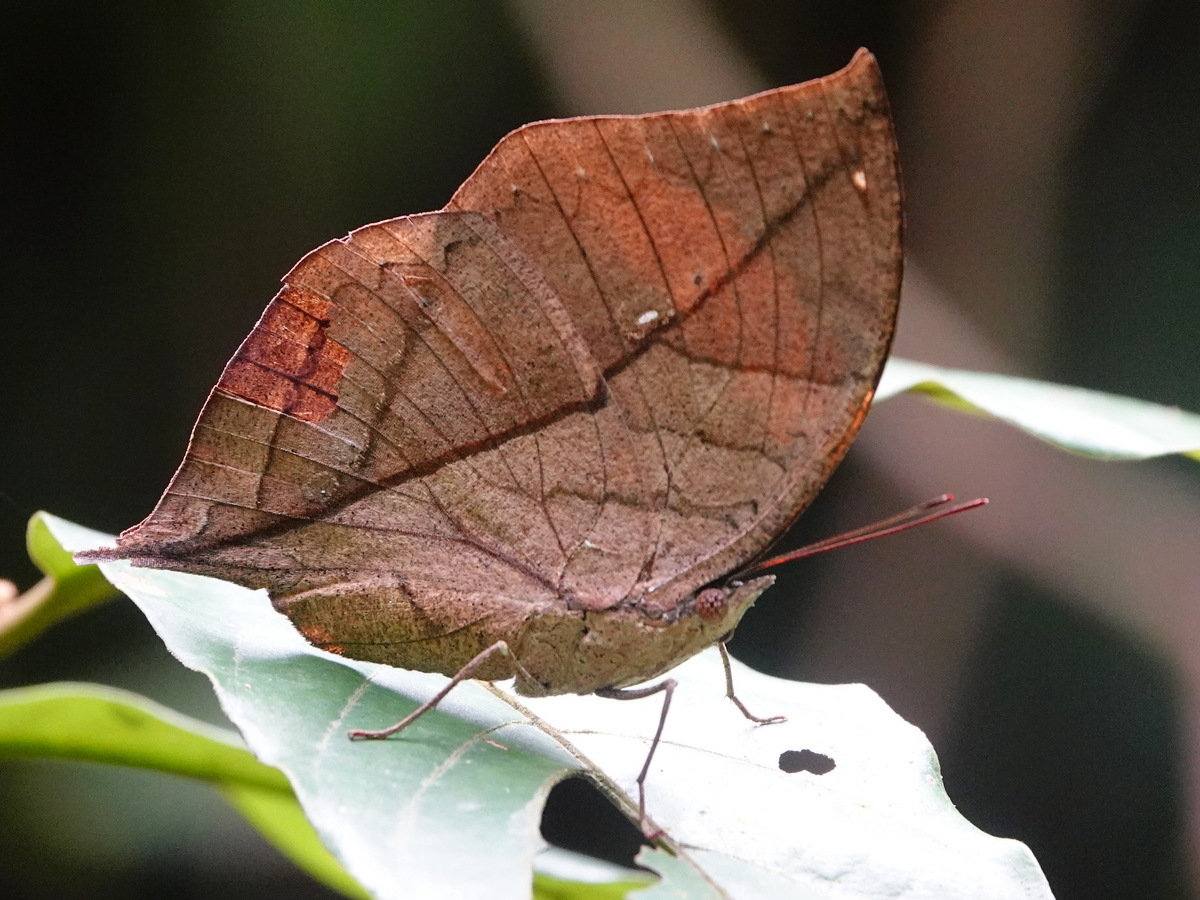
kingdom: Animalia
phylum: Arthropoda
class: Insecta
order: Lepidoptera
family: Nymphalidae
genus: Kallima
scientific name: Kallima inachus
